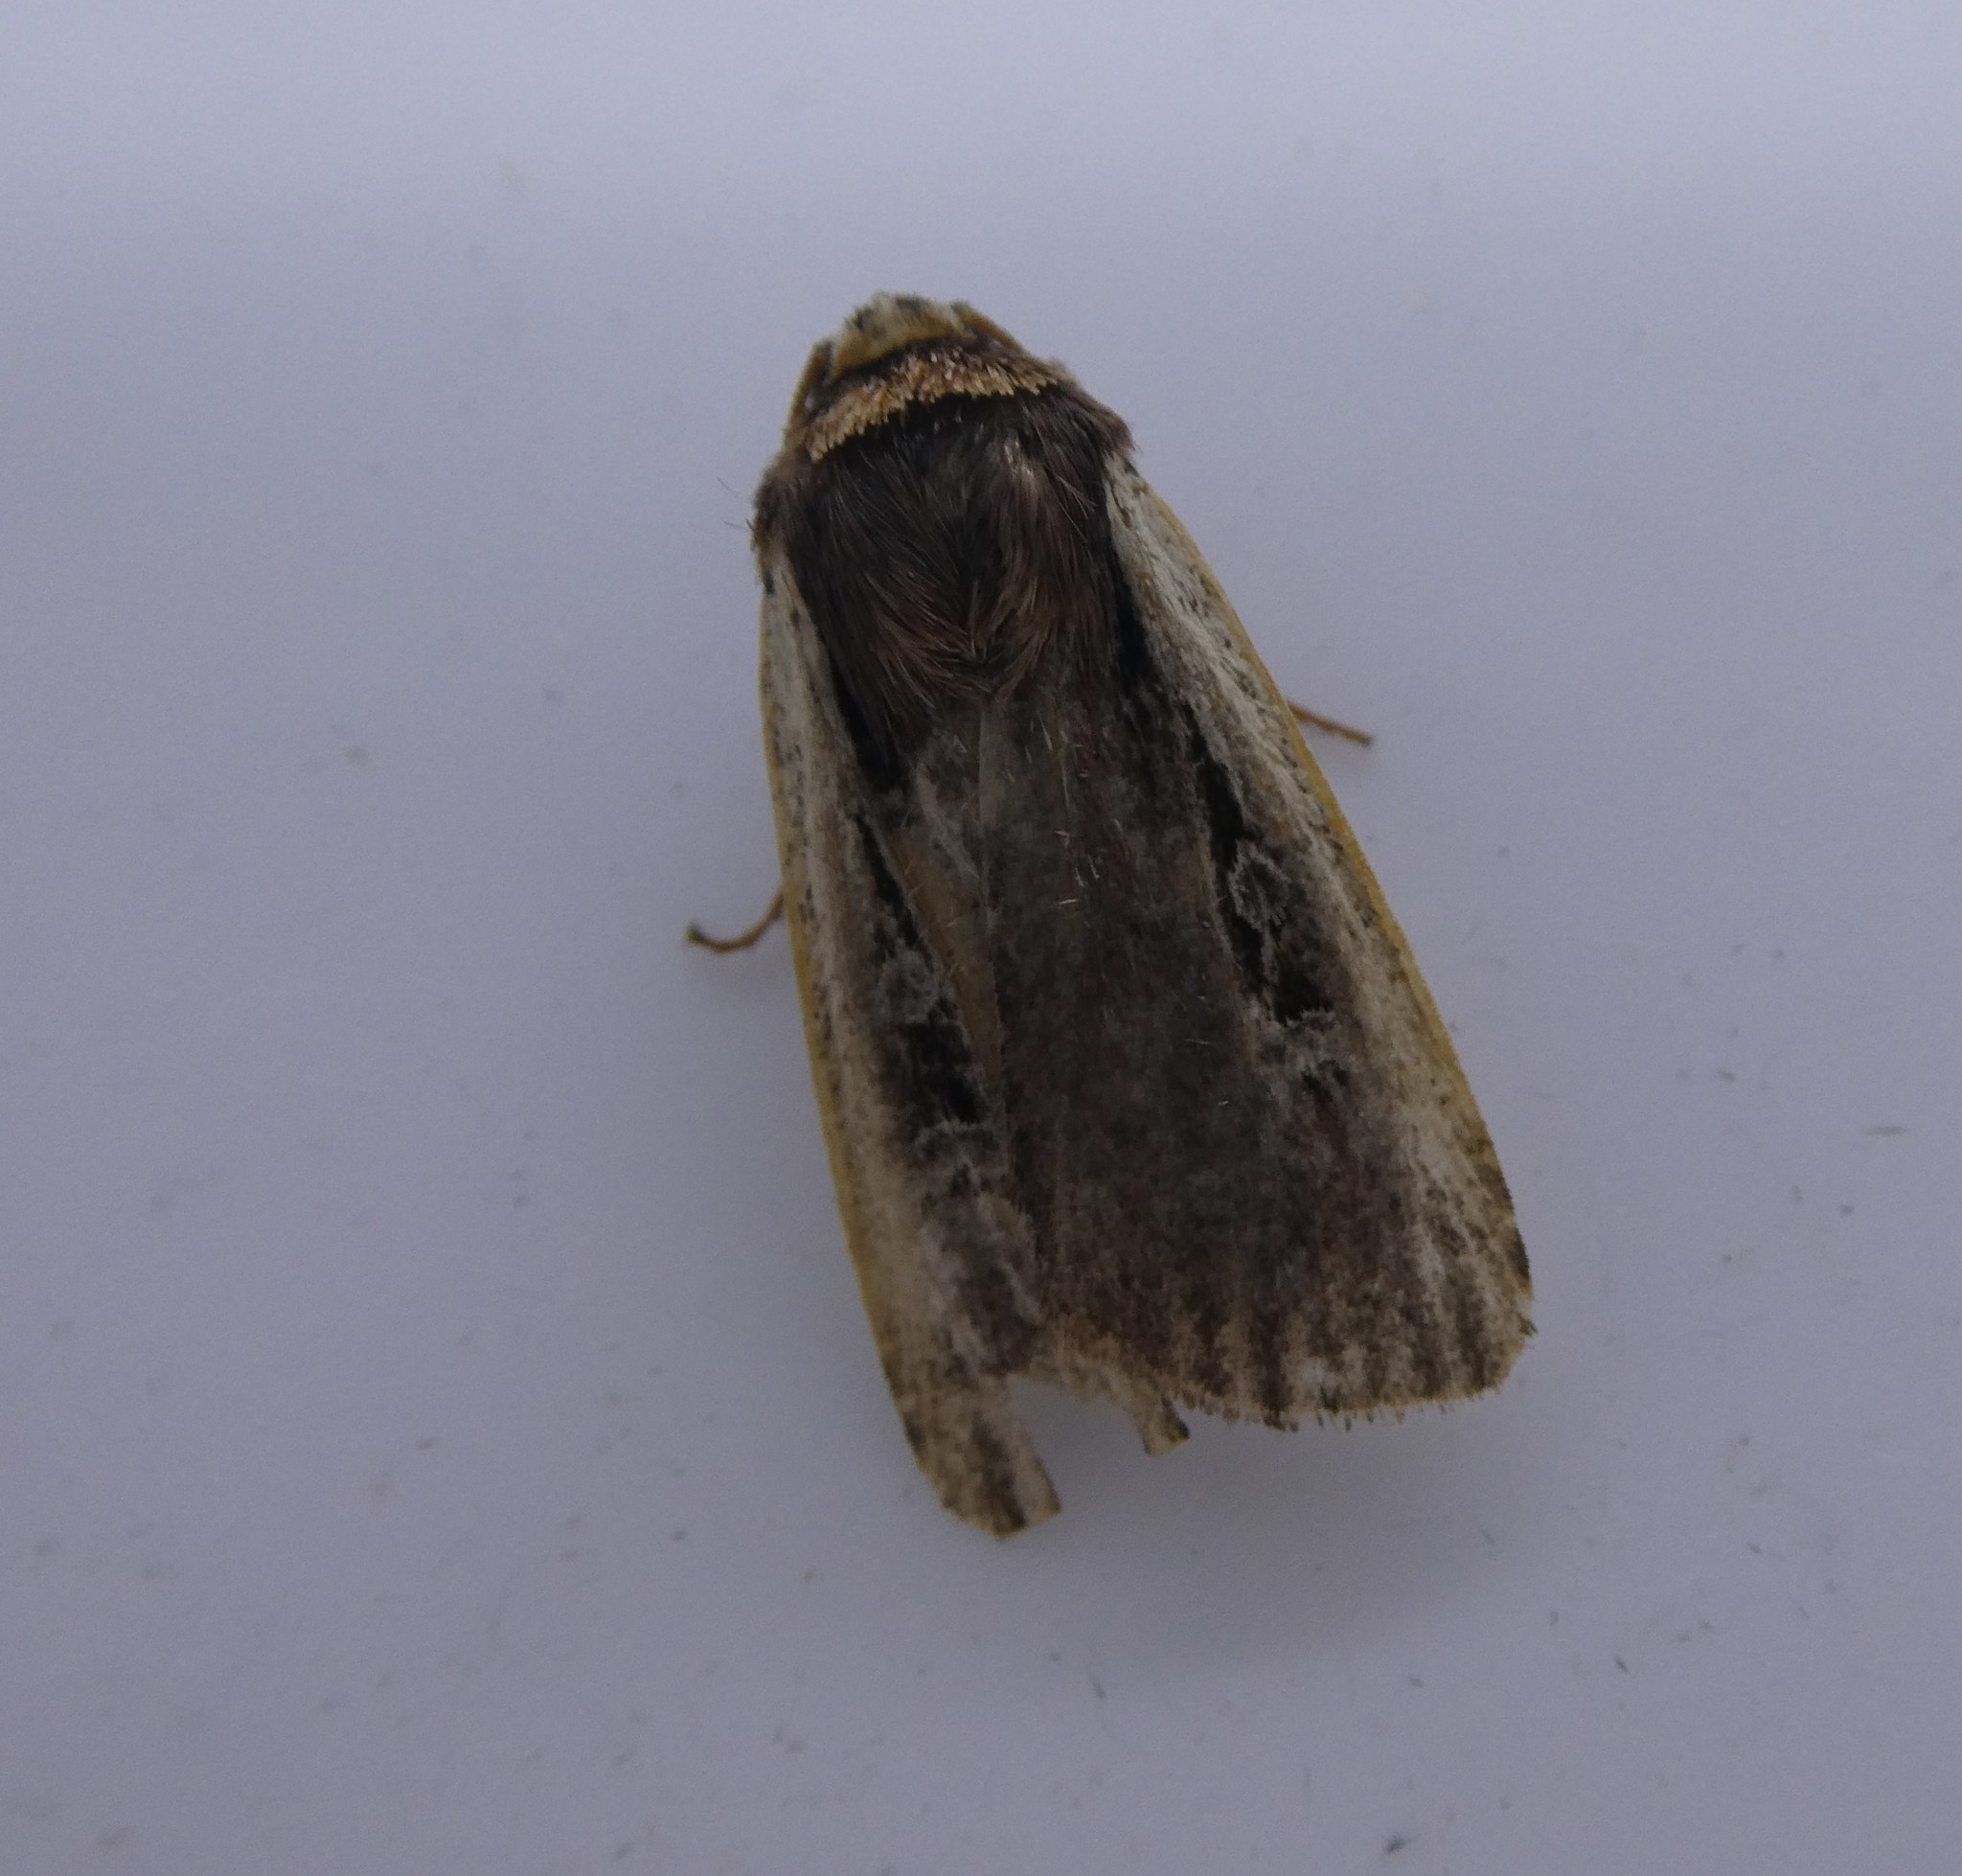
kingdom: Animalia
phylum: Arthropoda
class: Insecta
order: Lepidoptera
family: Noctuidae
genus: Ochropleura
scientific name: Ochropleura implecta
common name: Flame-shouldered dart
